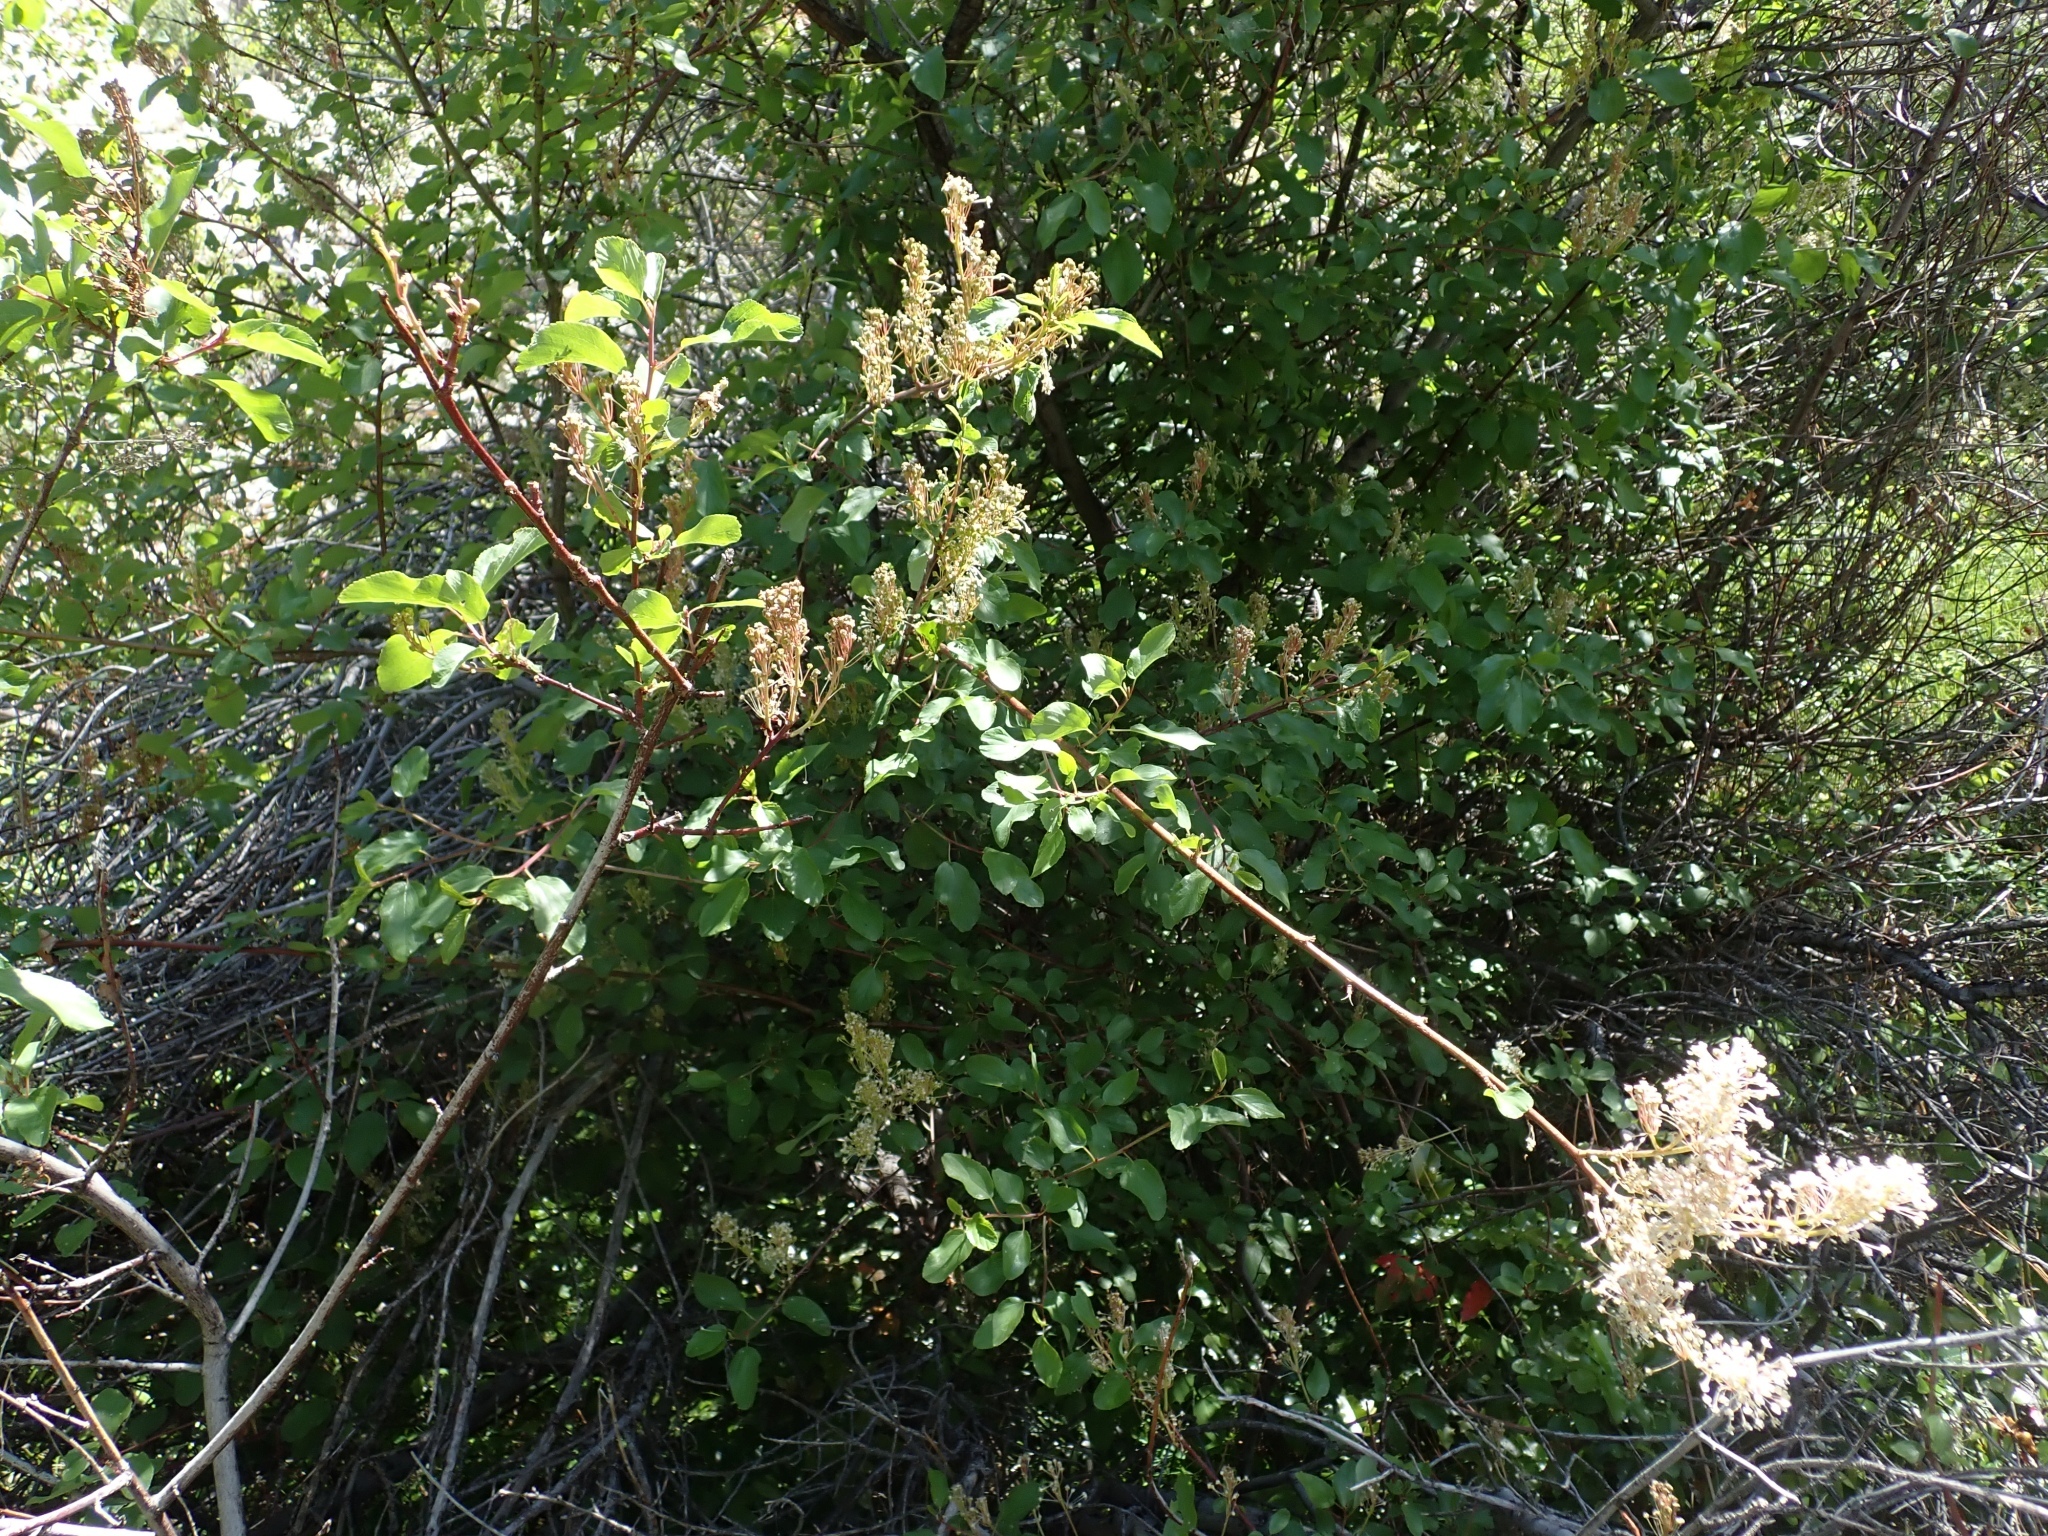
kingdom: Plantae
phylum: Tracheophyta
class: Magnoliopsida
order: Rosales
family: Rhamnaceae
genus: Ceanothus
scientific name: Ceanothus sanguineus
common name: Teatree
